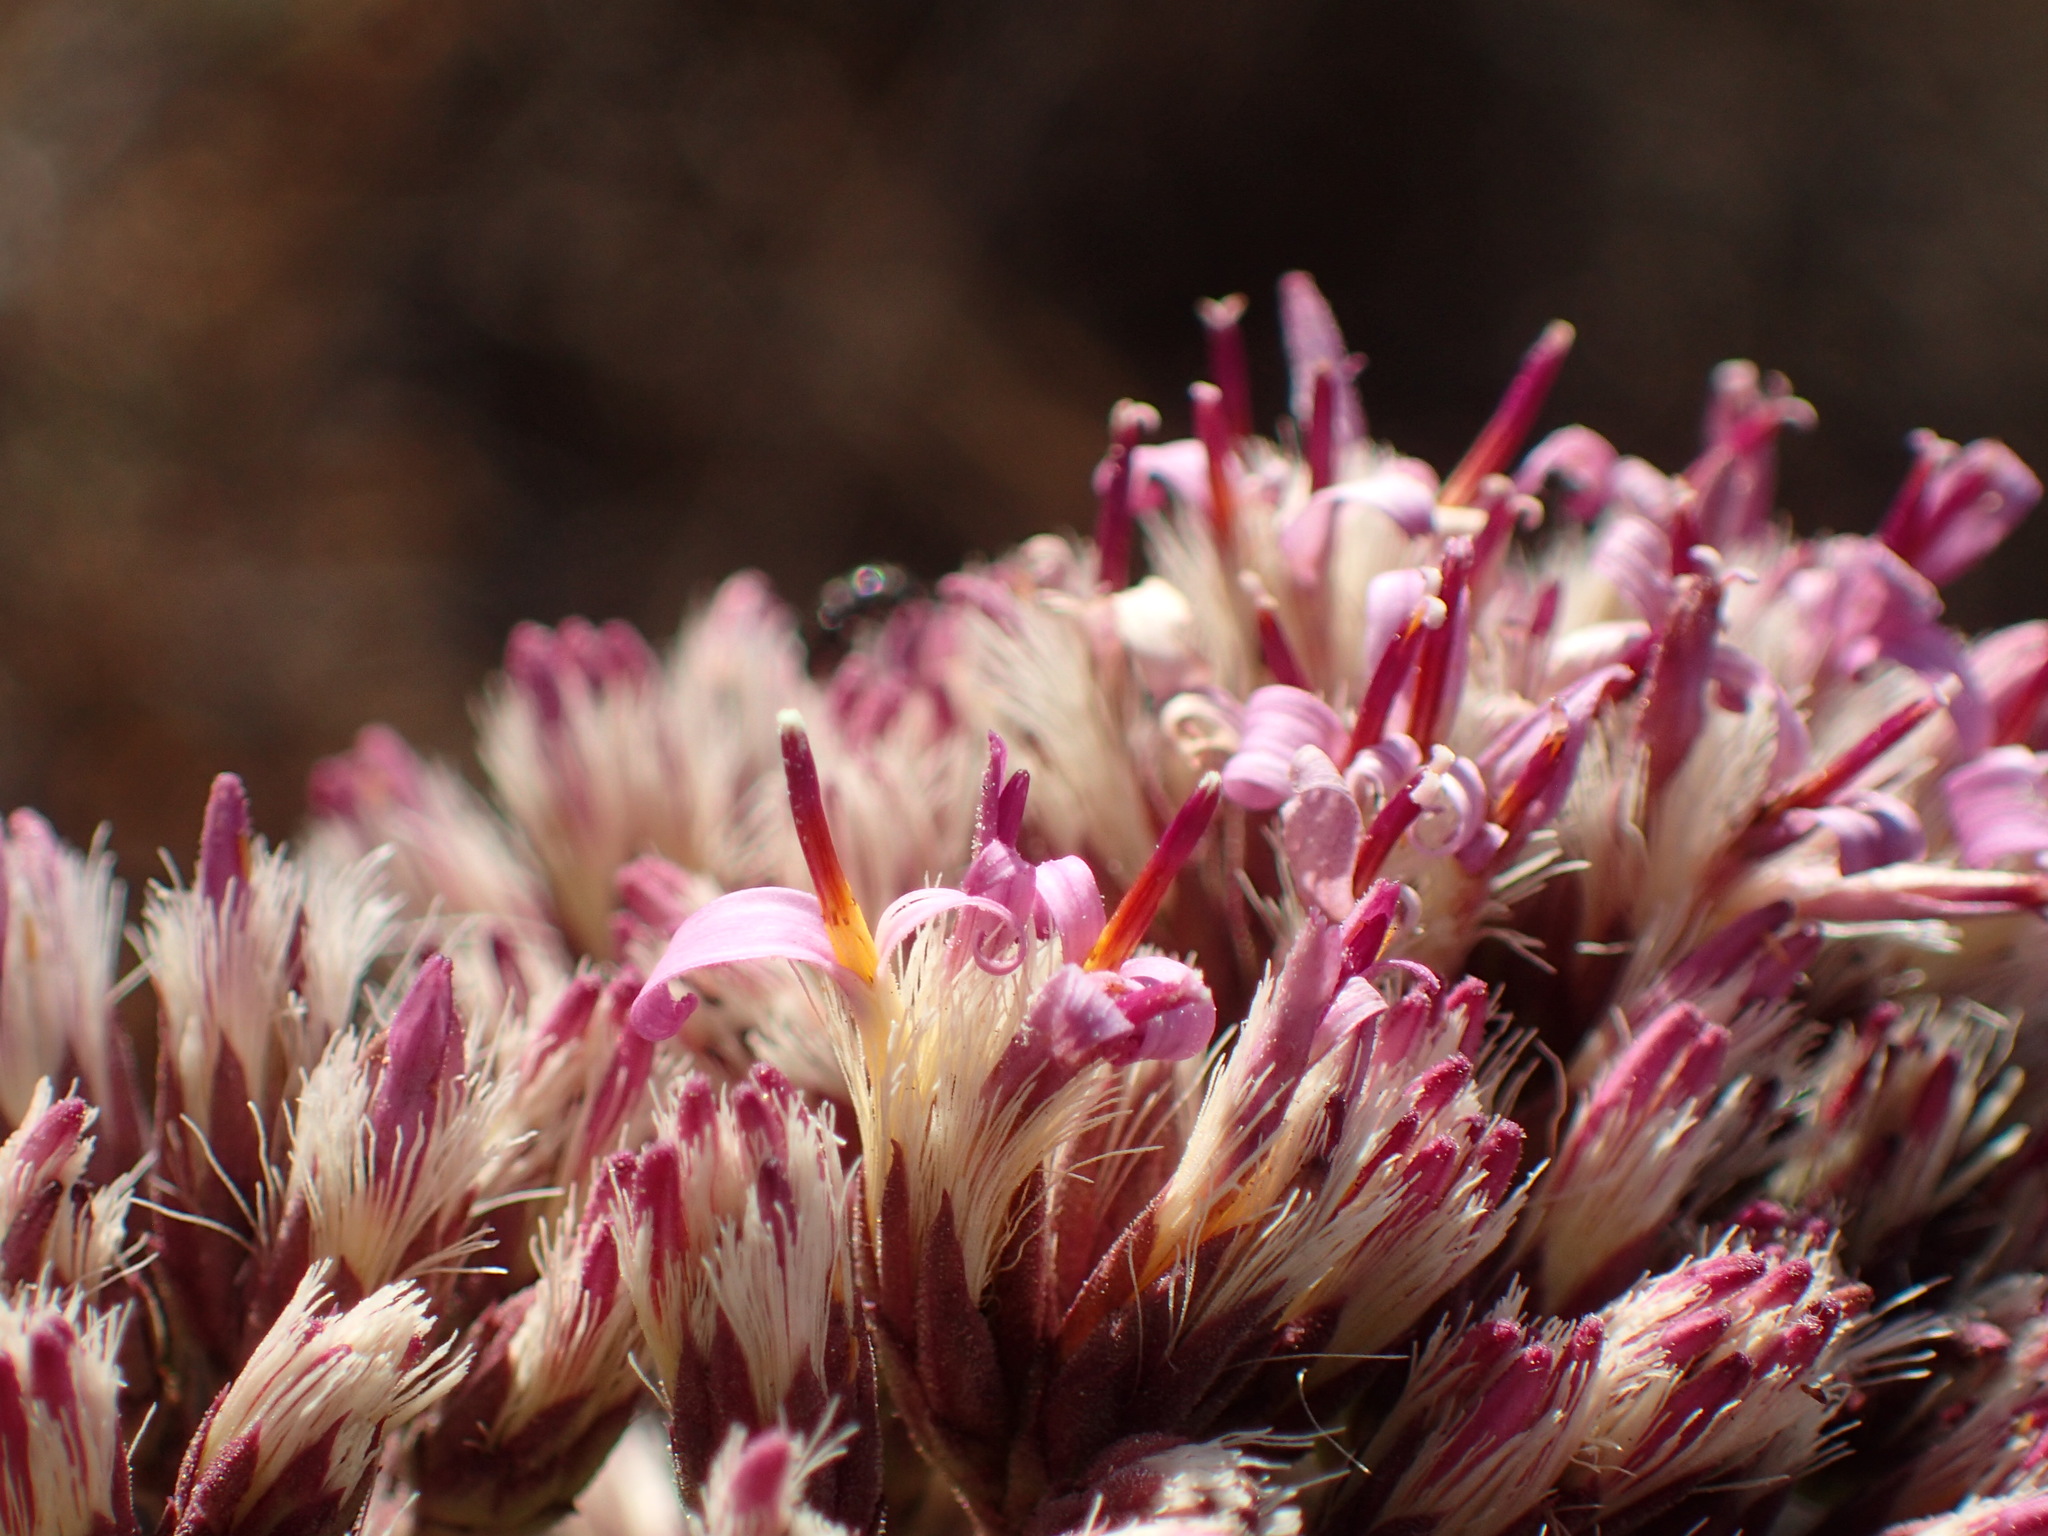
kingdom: Plantae
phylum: Tracheophyta
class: Magnoliopsida
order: Asterales
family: Asteraceae
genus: Acourtia
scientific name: Acourtia microcephala
